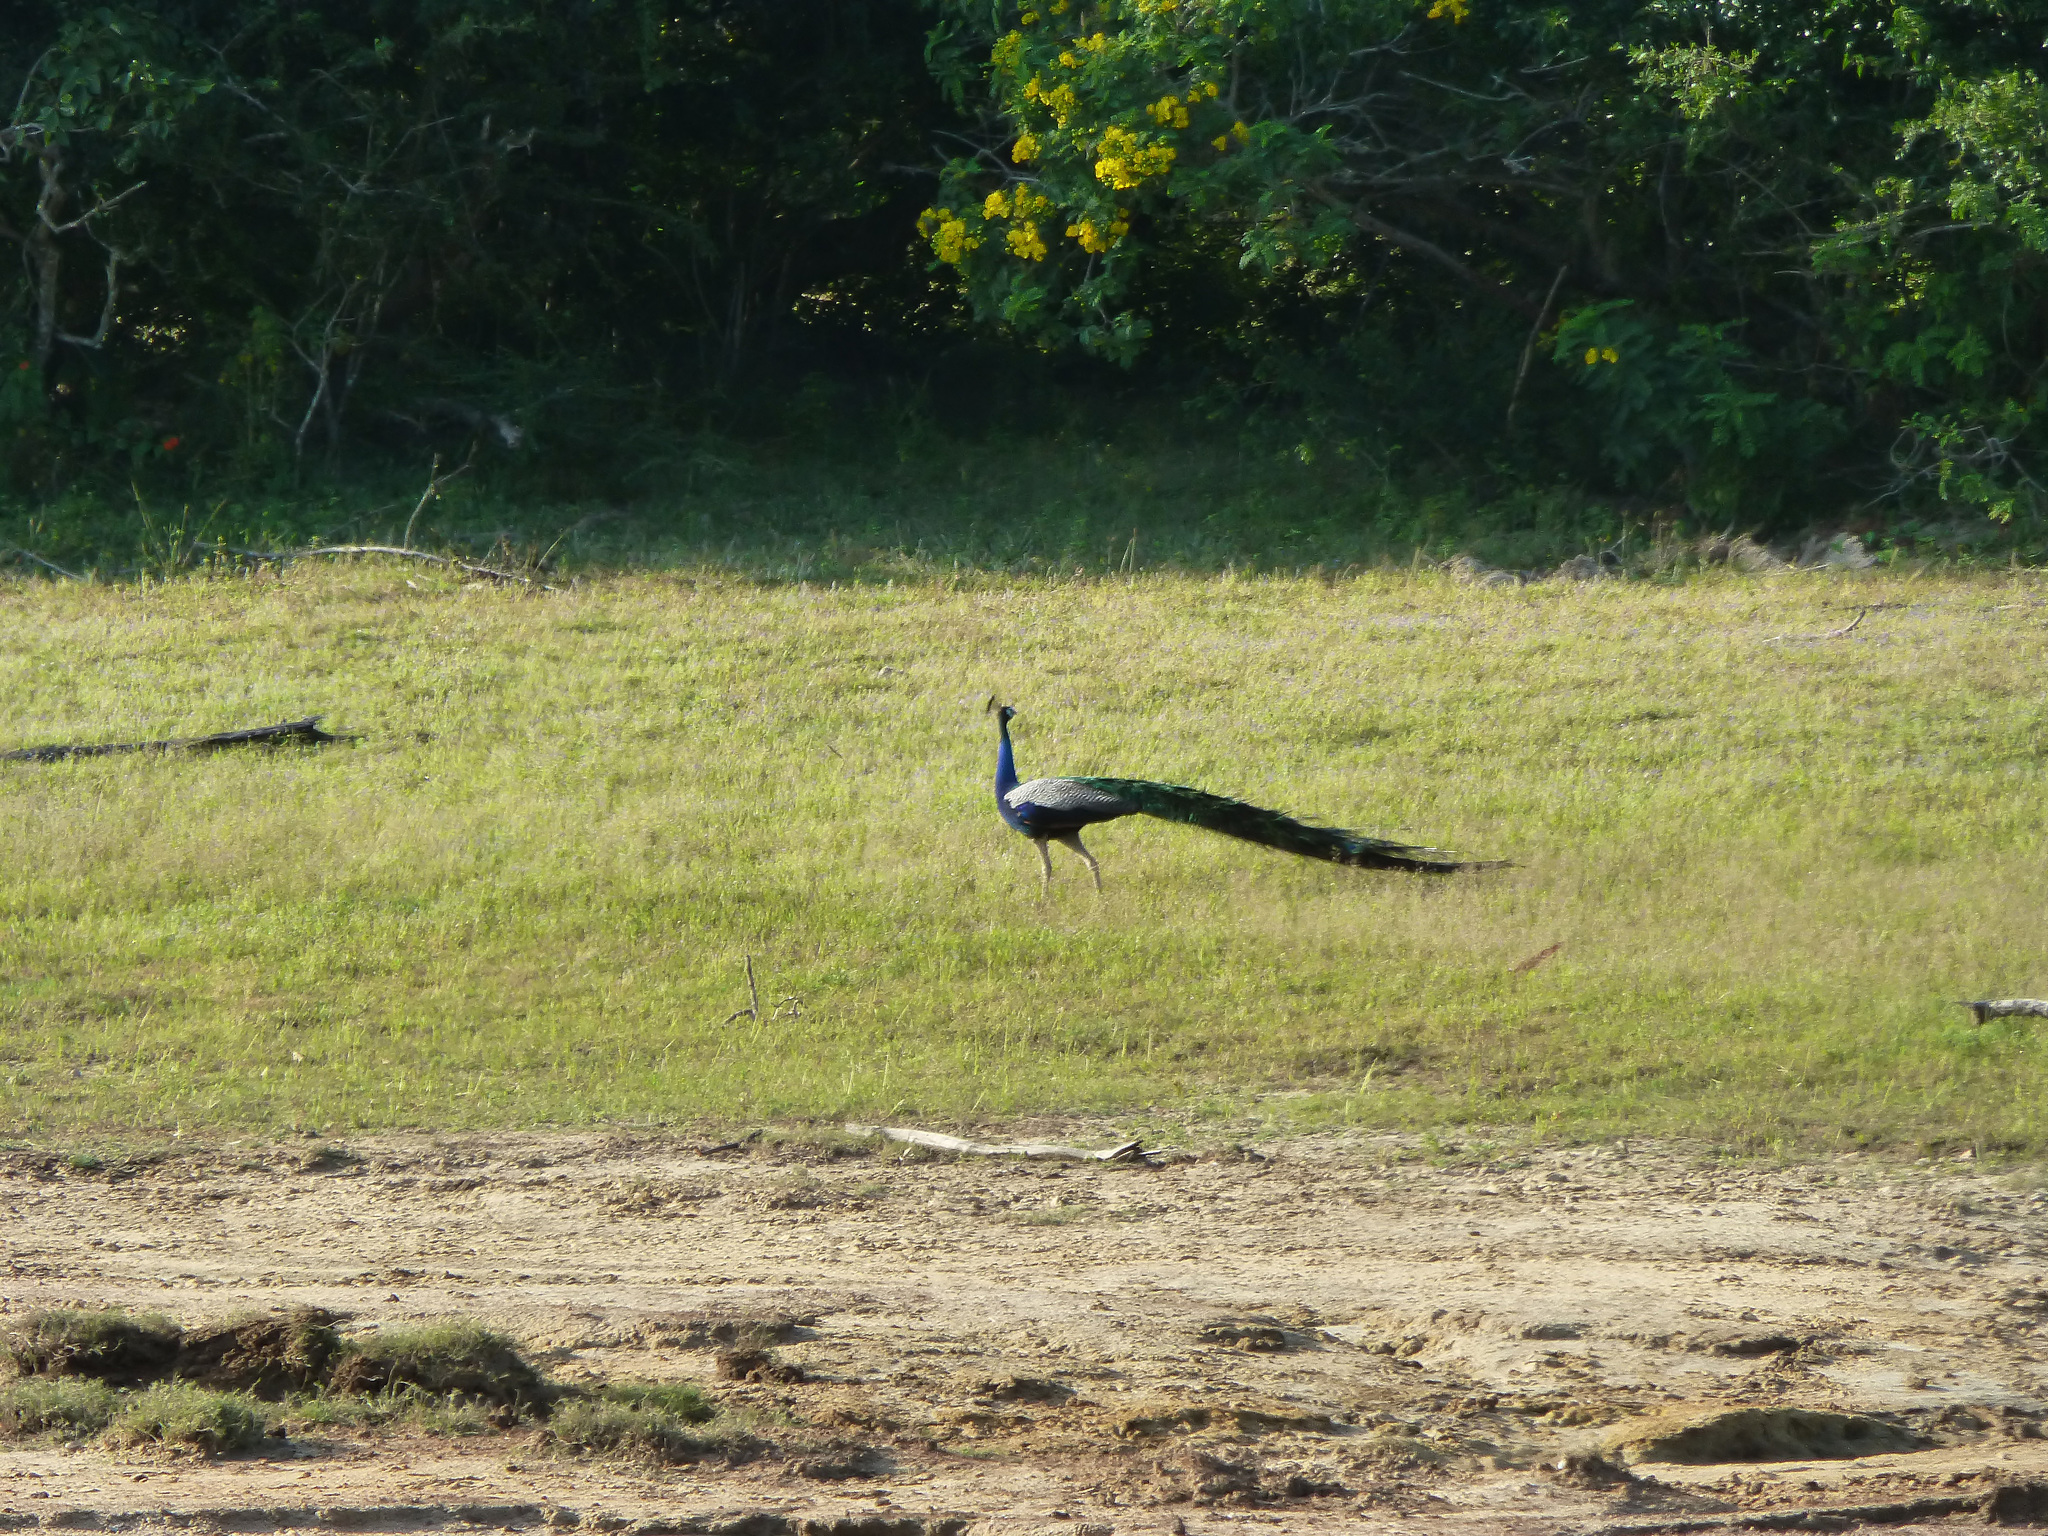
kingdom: Animalia
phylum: Chordata
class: Aves
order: Galliformes
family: Phasianidae
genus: Pavo
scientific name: Pavo cristatus
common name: Indian peafowl
